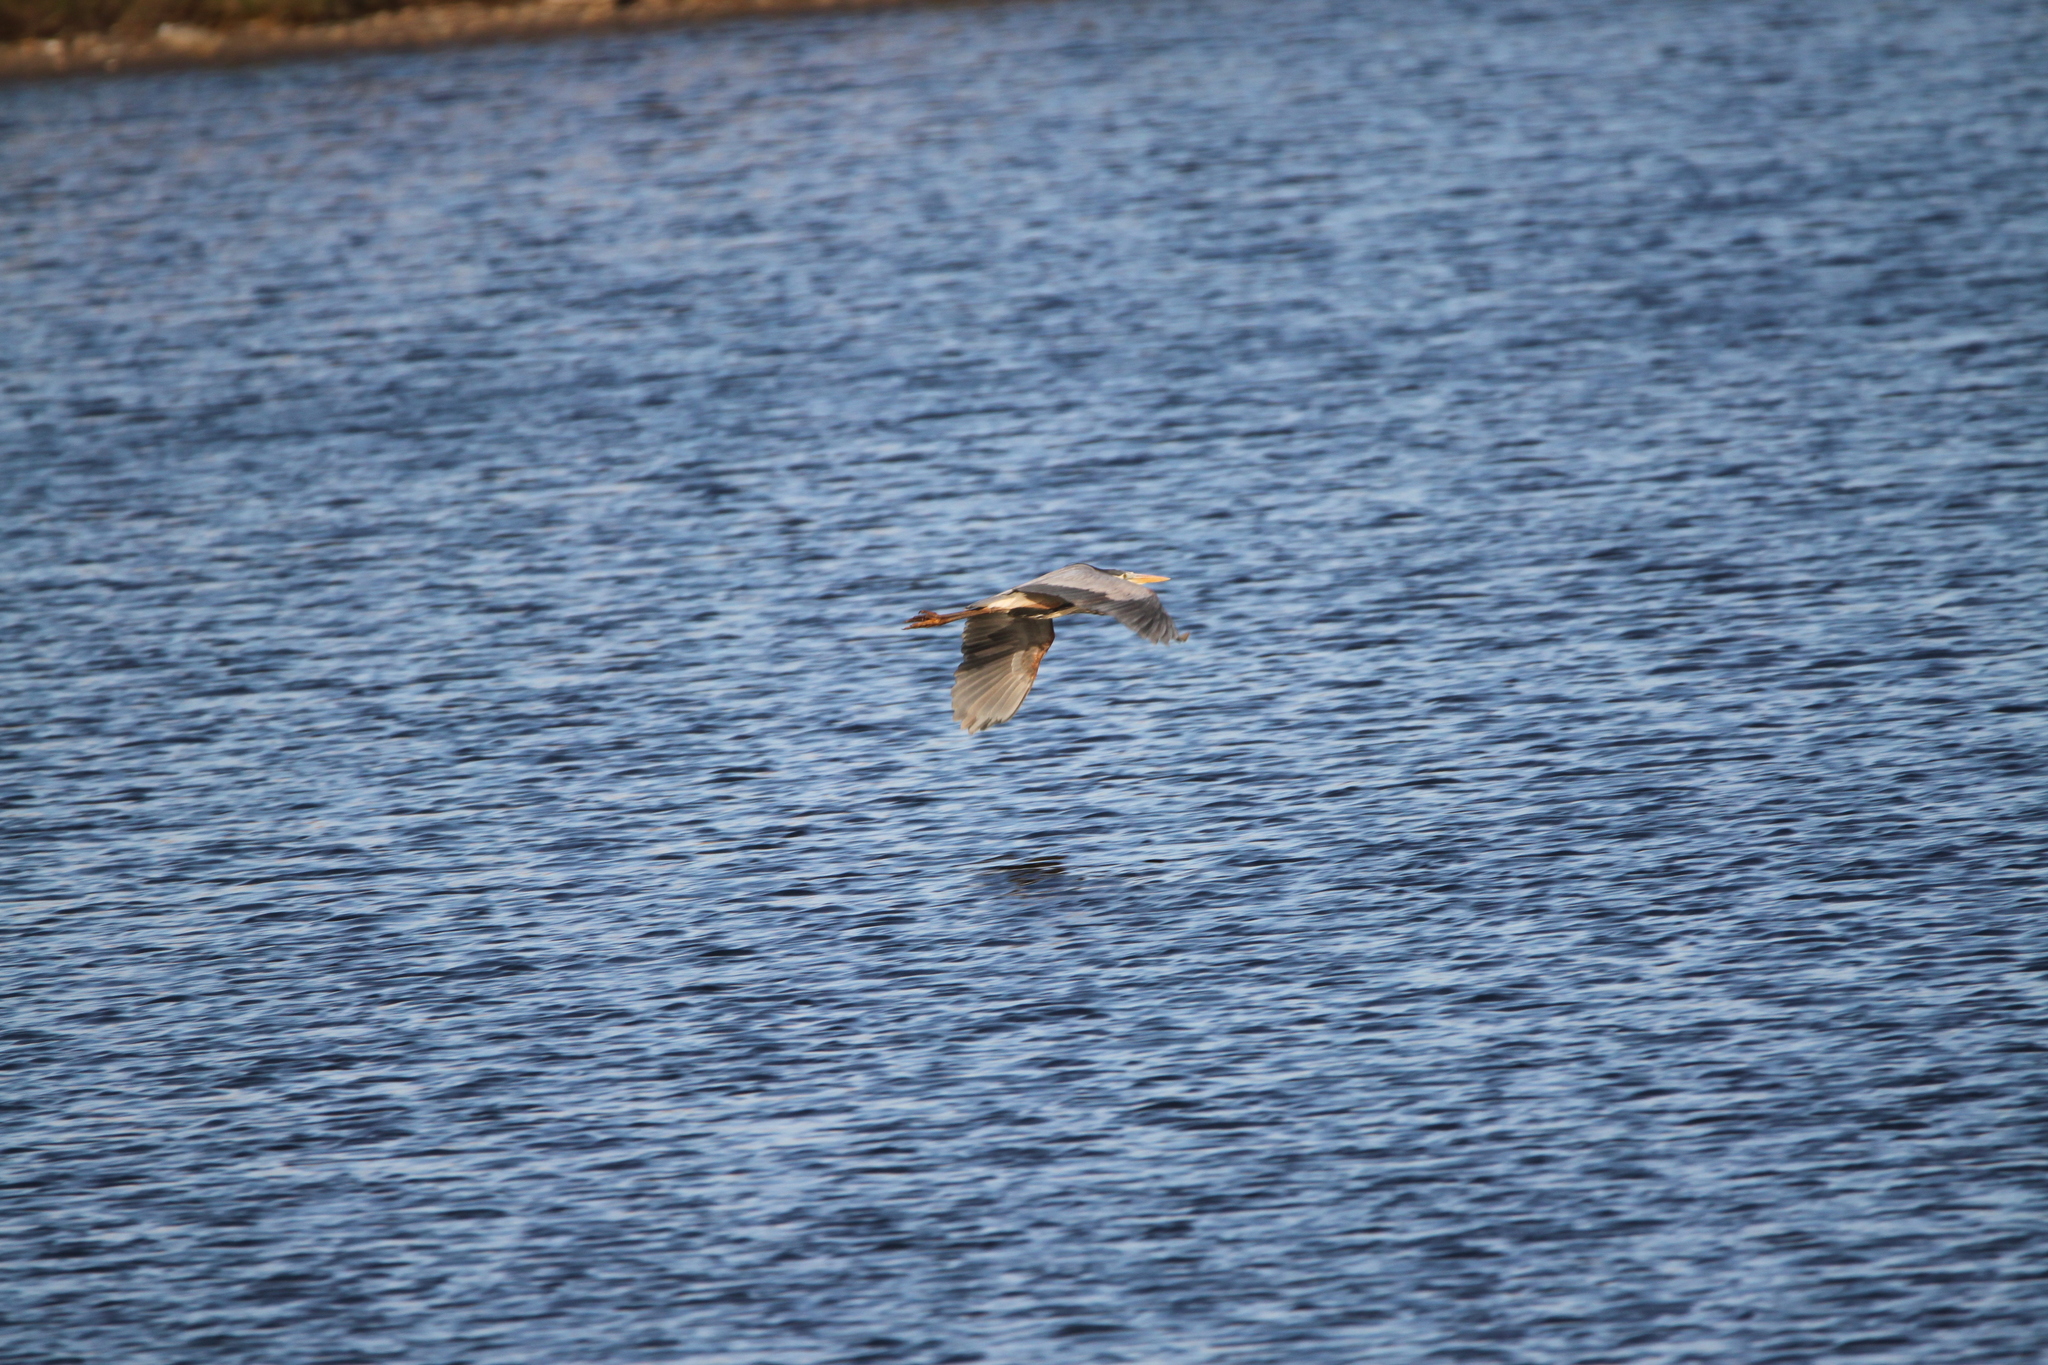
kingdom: Animalia
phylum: Chordata
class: Aves
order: Pelecaniformes
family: Ardeidae
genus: Ardea
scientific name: Ardea herodias
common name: Great blue heron
